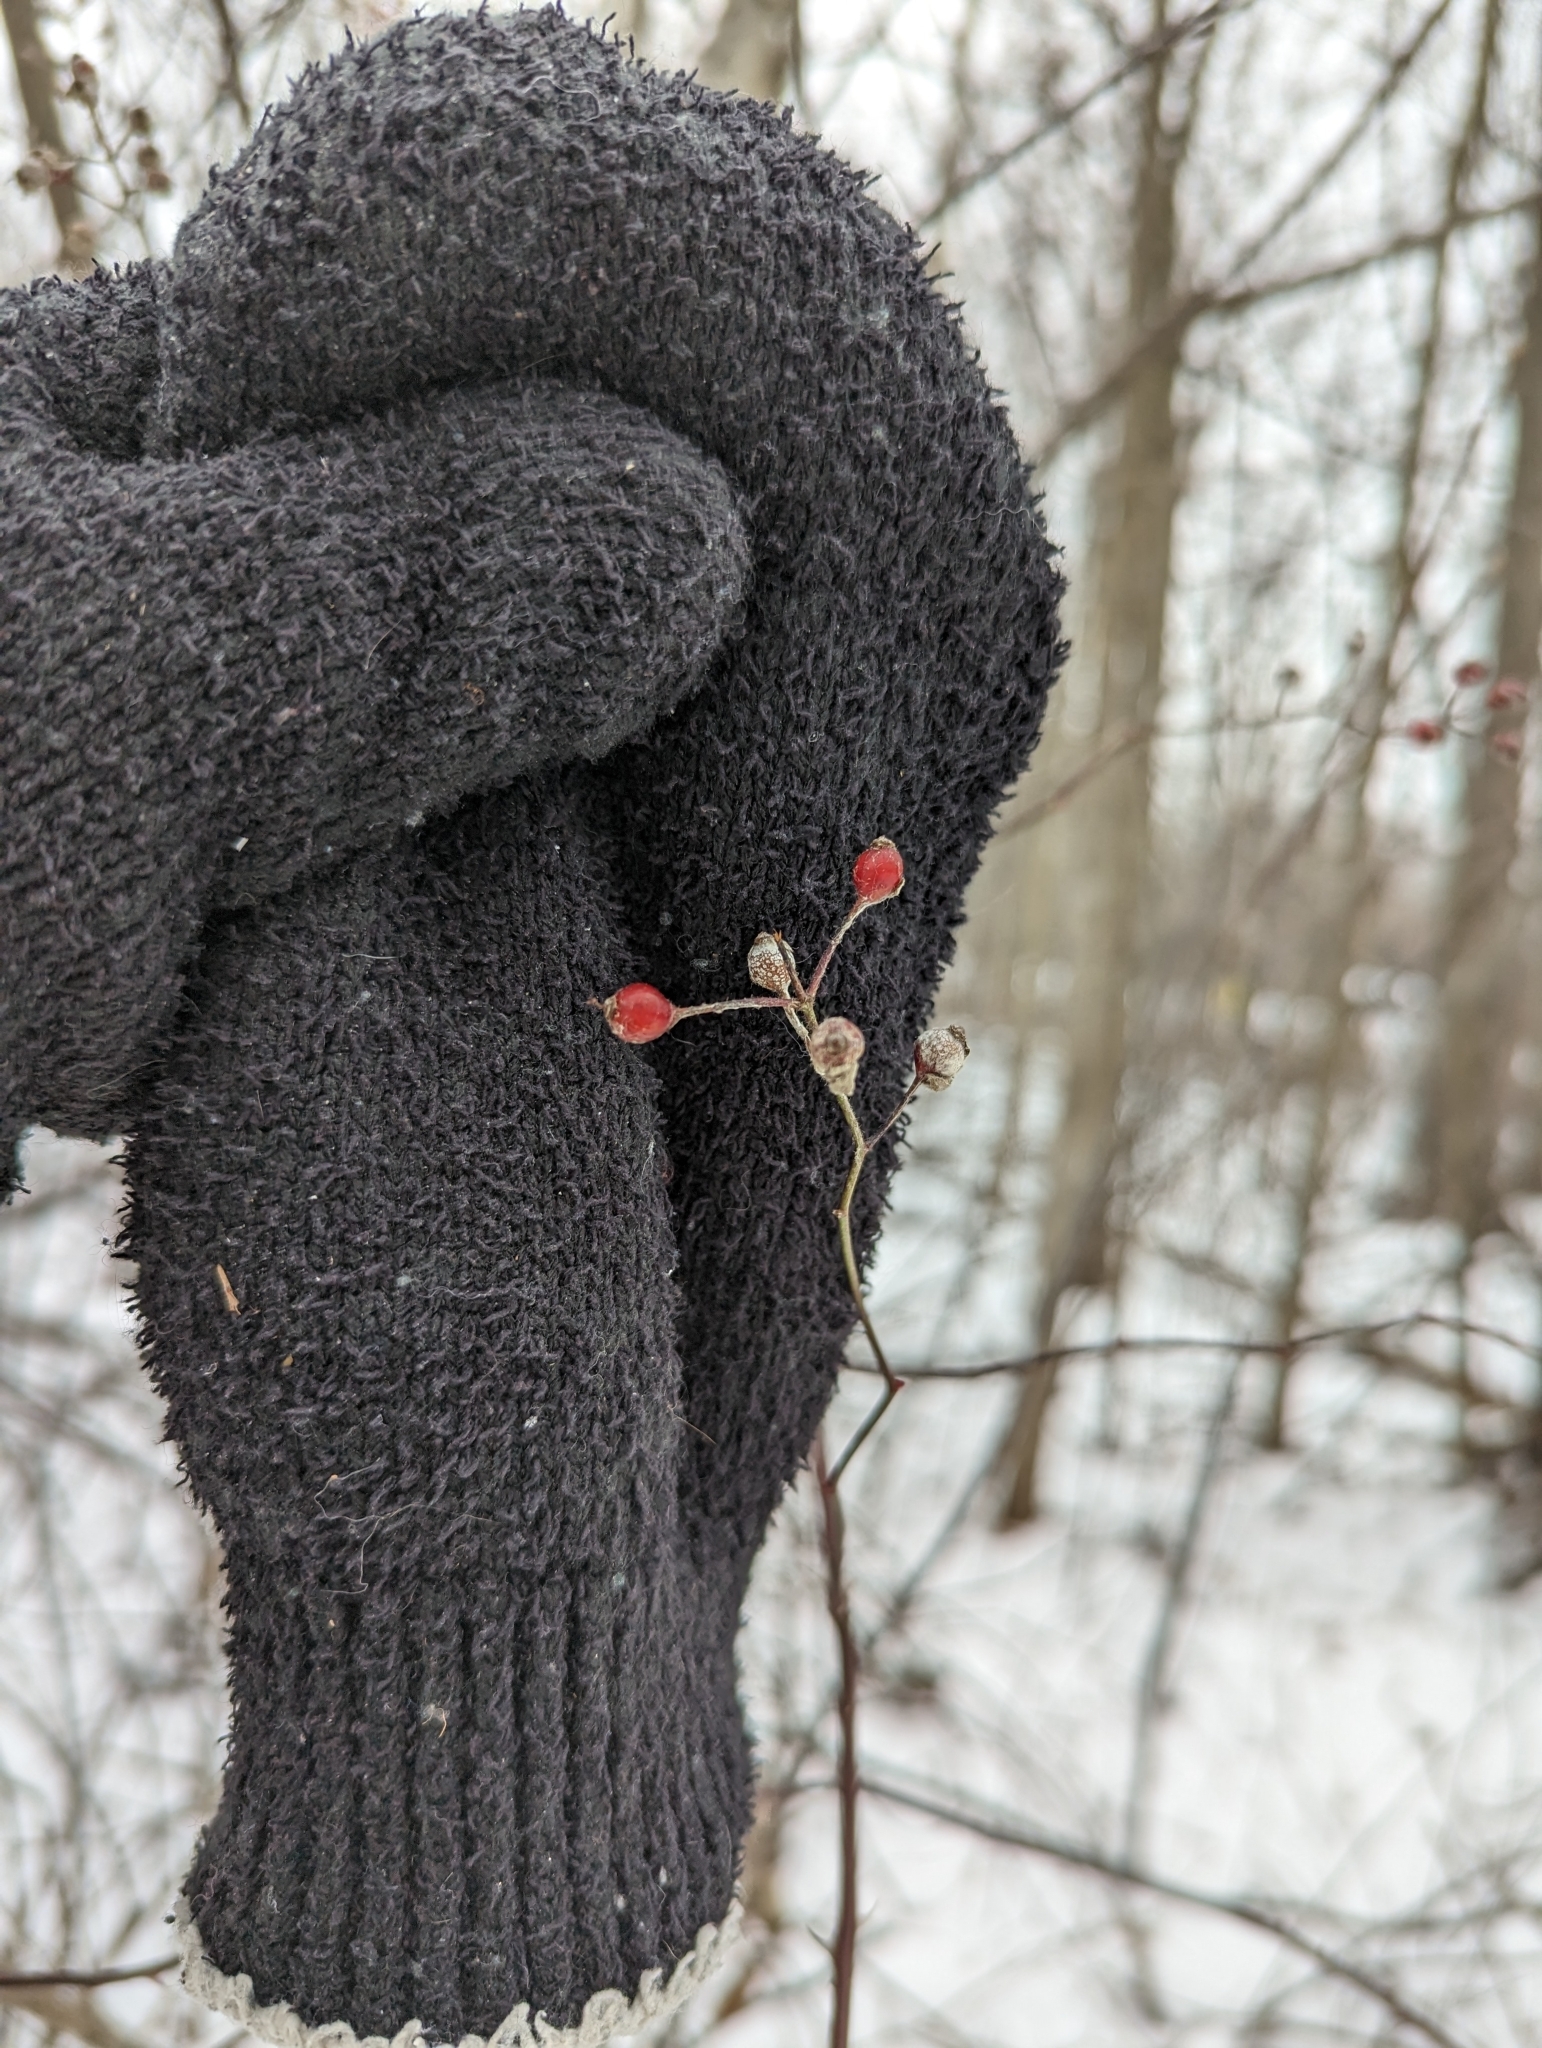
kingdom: Plantae
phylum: Tracheophyta
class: Magnoliopsida
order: Rosales
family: Rosaceae
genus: Rosa
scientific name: Rosa multiflora
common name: Multiflora rose
